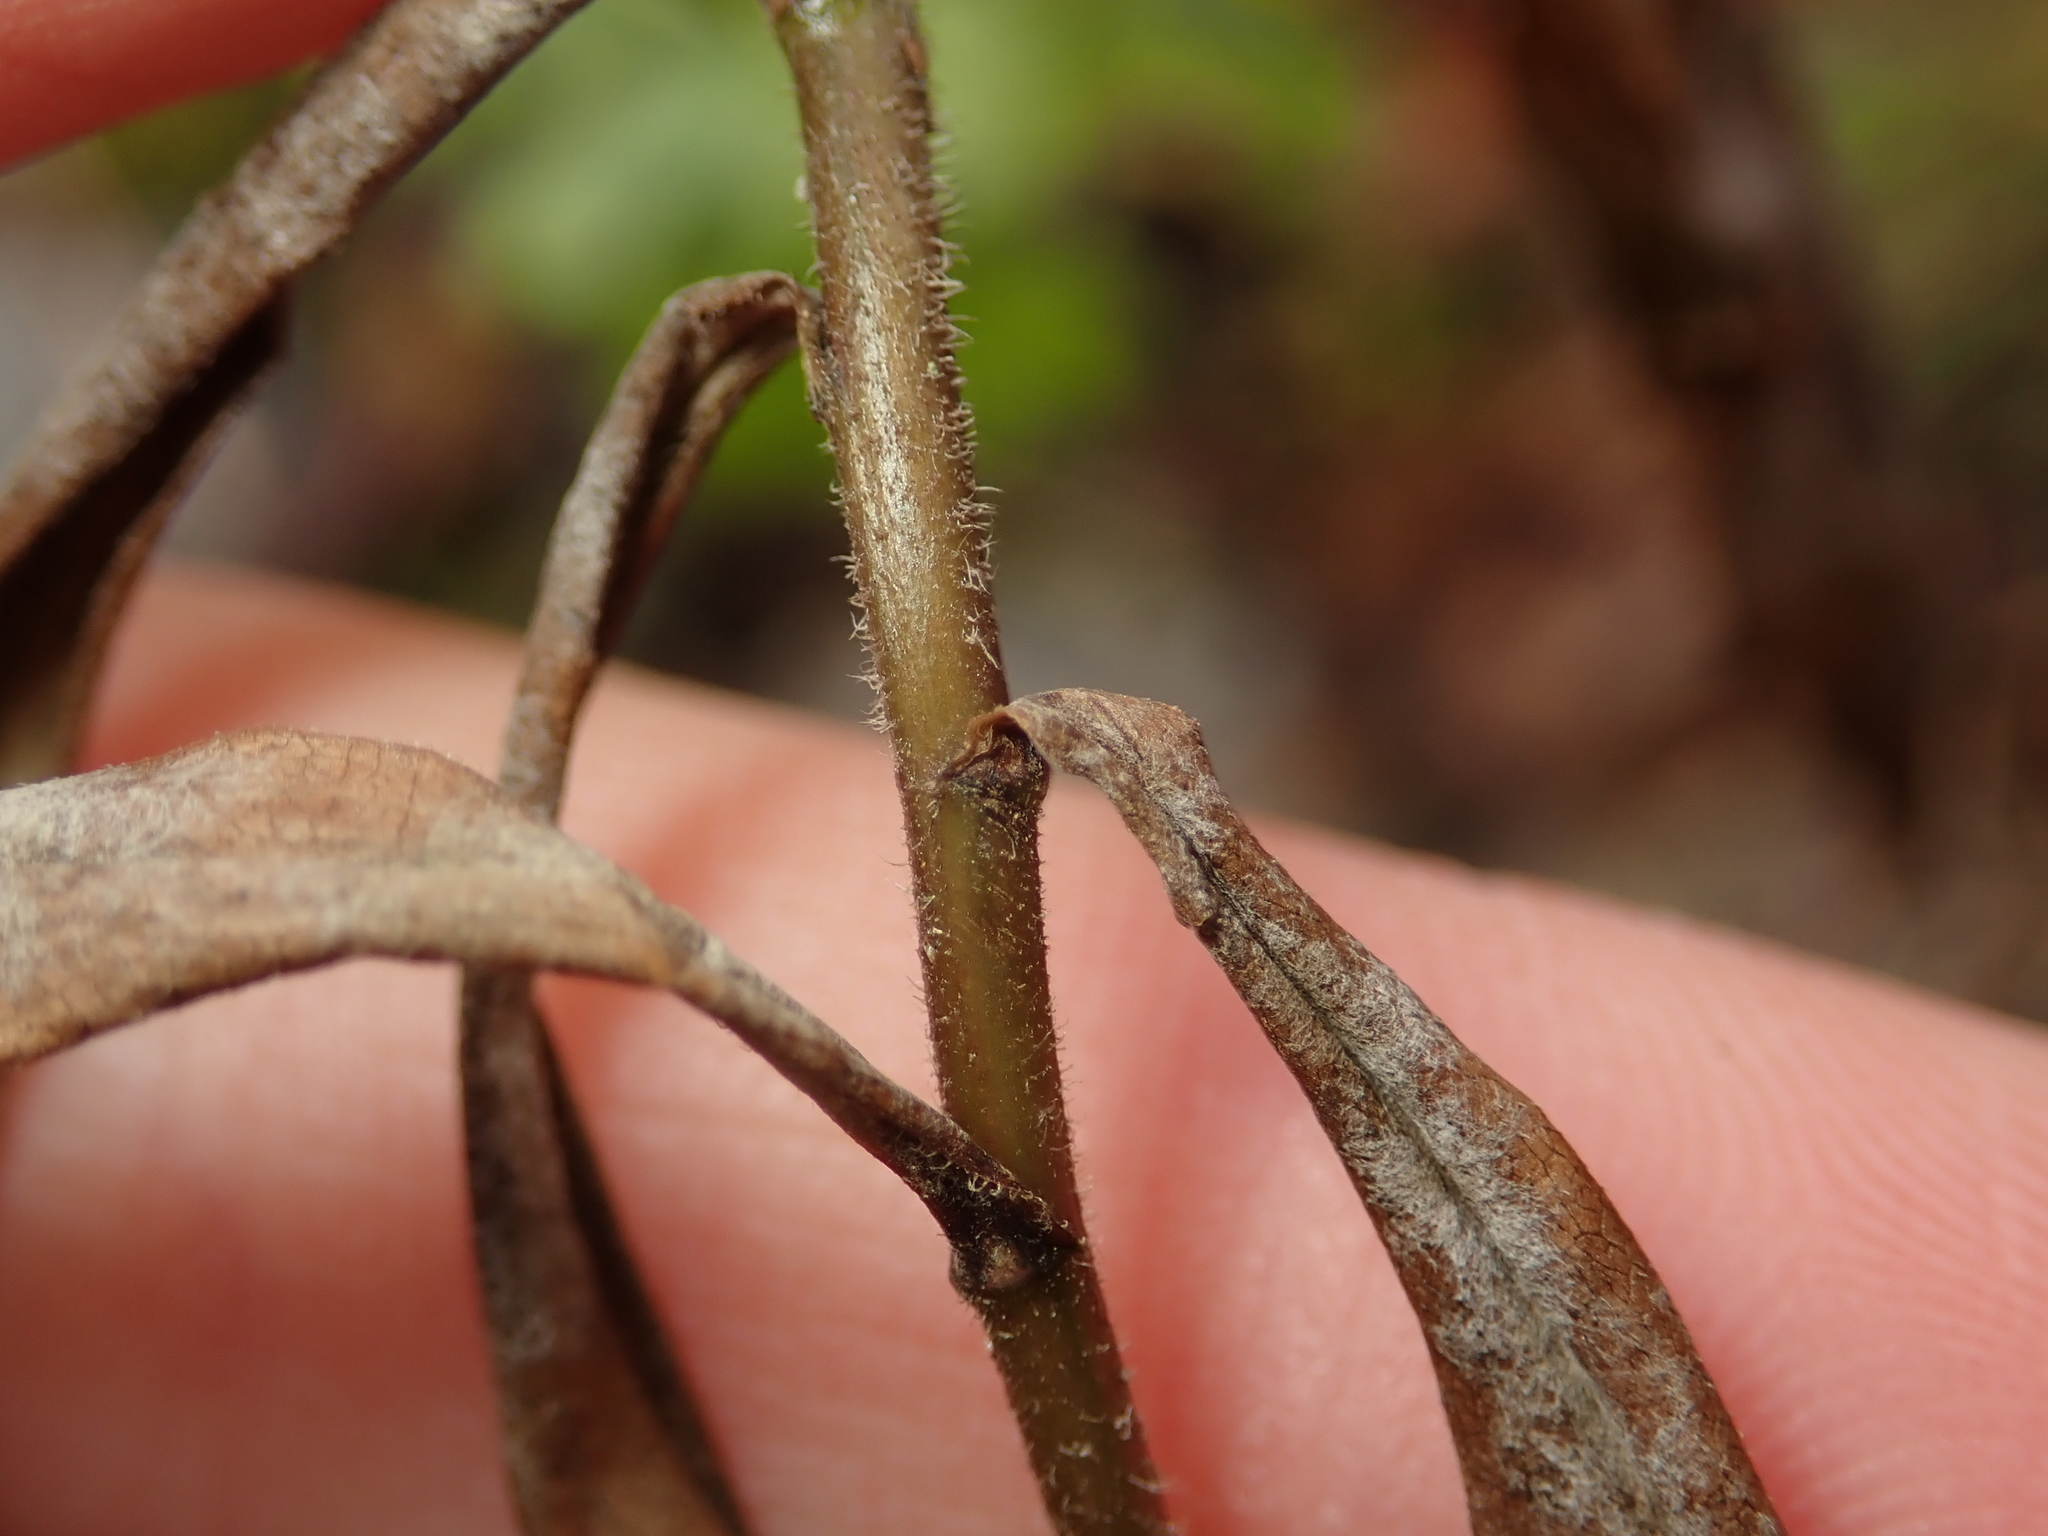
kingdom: Plantae
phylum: Tracheophyta
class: Magnoliopsida
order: Asterales
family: Asteraceae
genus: Solidago
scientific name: Solidago canadensis
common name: Canada goldenrod
